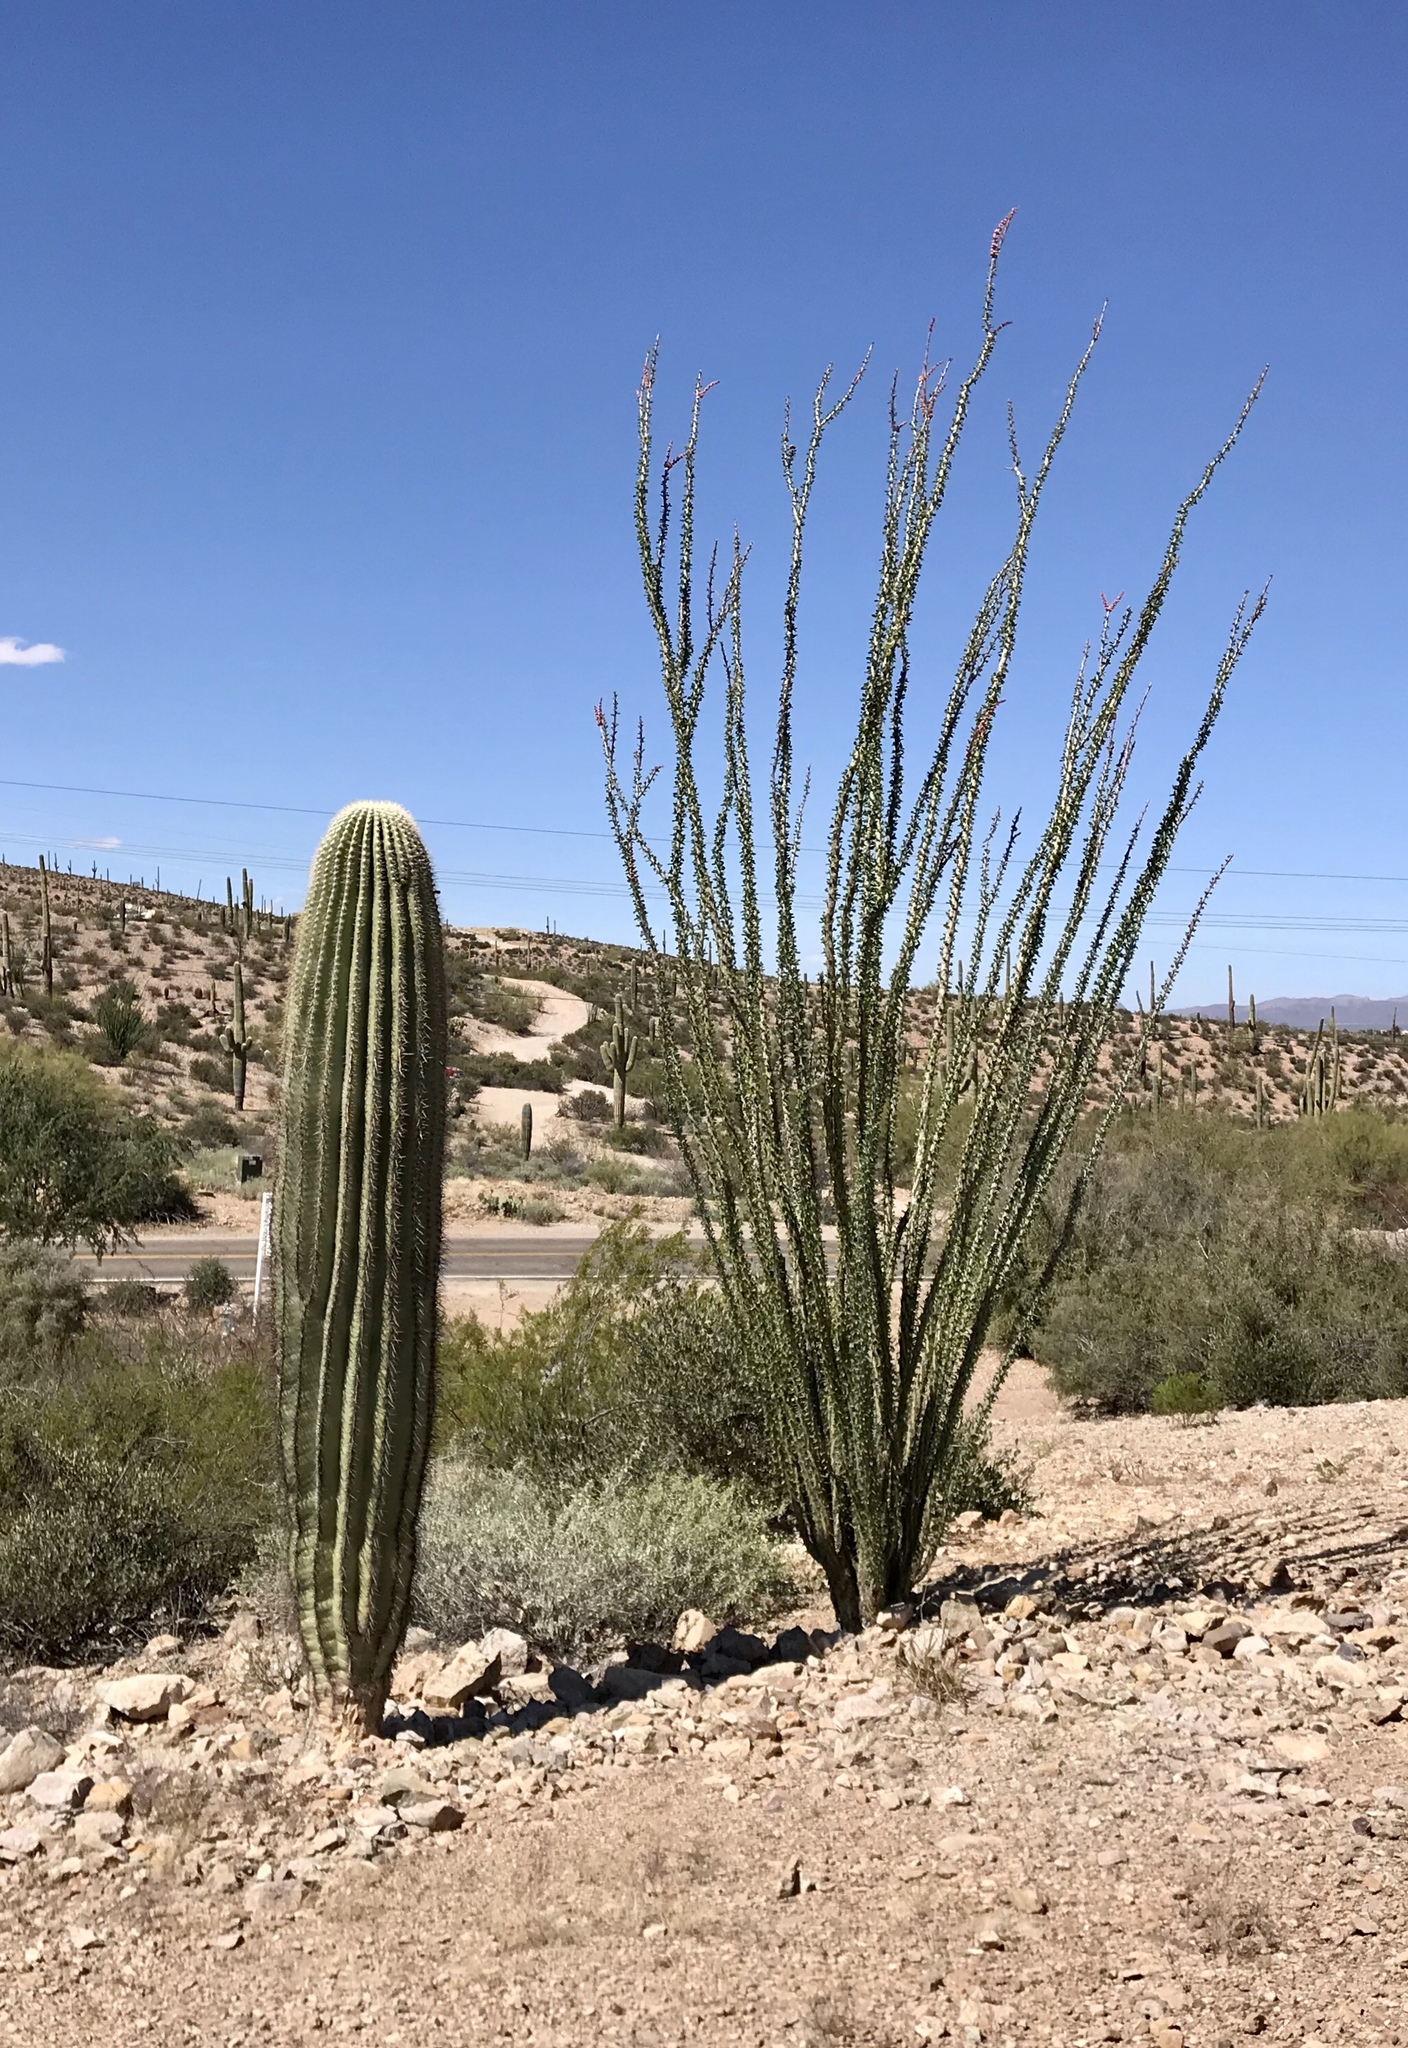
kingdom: Plantae
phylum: Tracheophyta
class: Magnoliopsida
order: Ericales
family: Fouquieriaceae
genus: Fouquieria
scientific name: Fouquieria splendens
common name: Vine-cactus
